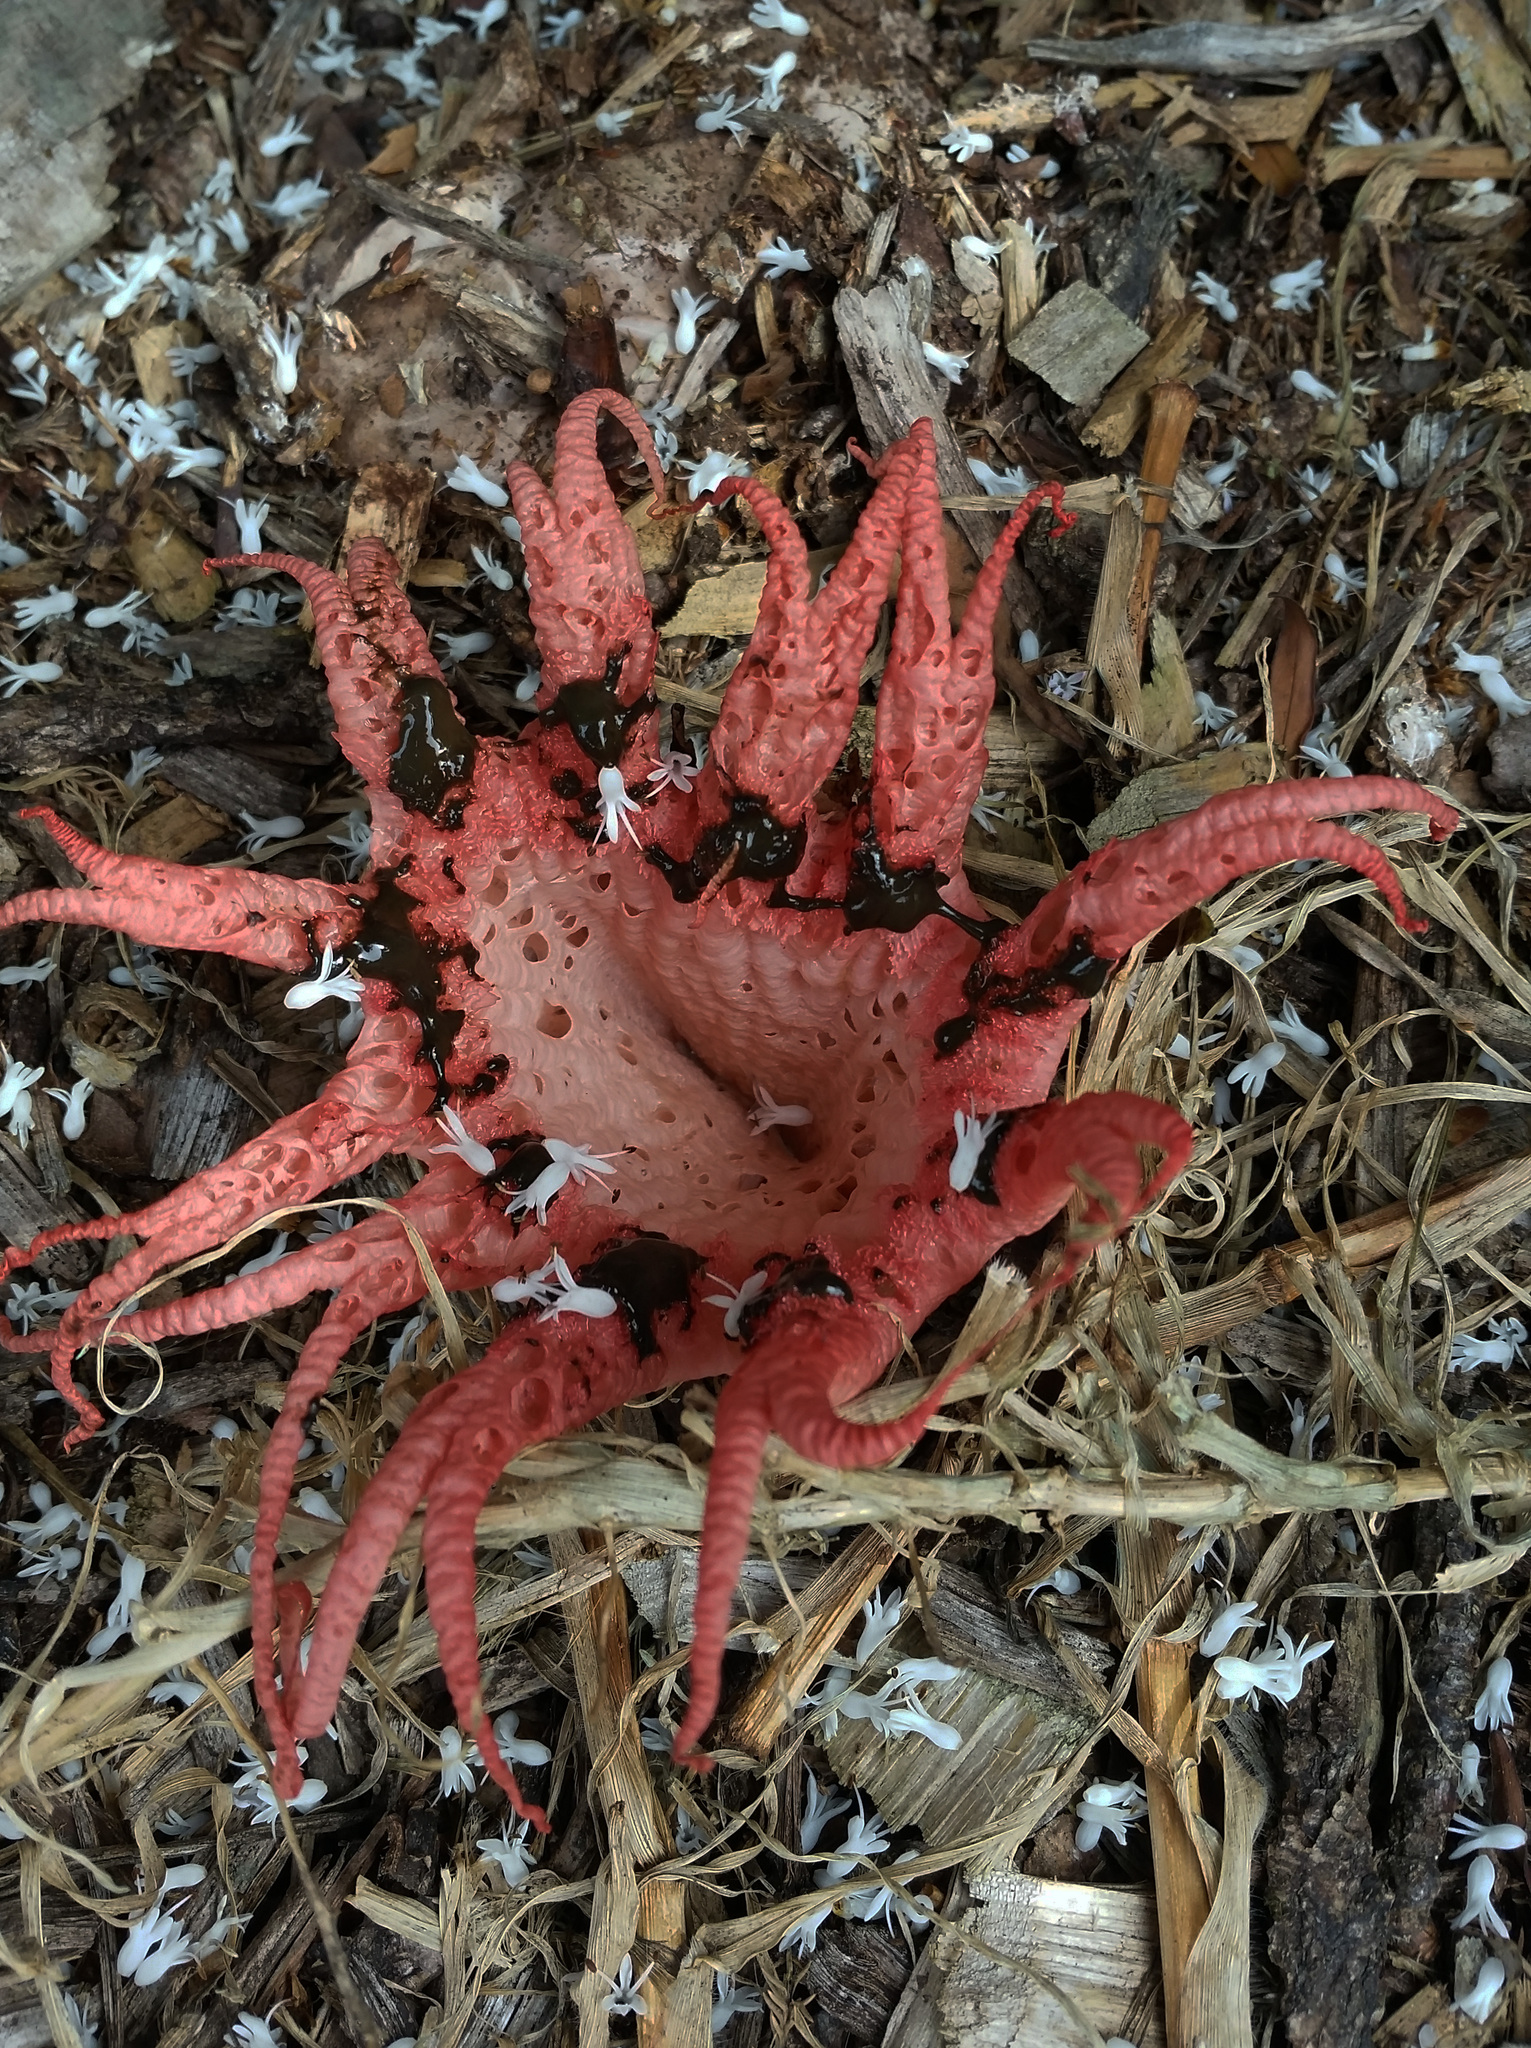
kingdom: Fungi
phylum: Basidiomycota
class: Agaricomycetes
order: Phallales
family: Phallaceae
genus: Clathrus
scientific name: Clathrus archeri
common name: Devil's fingers
